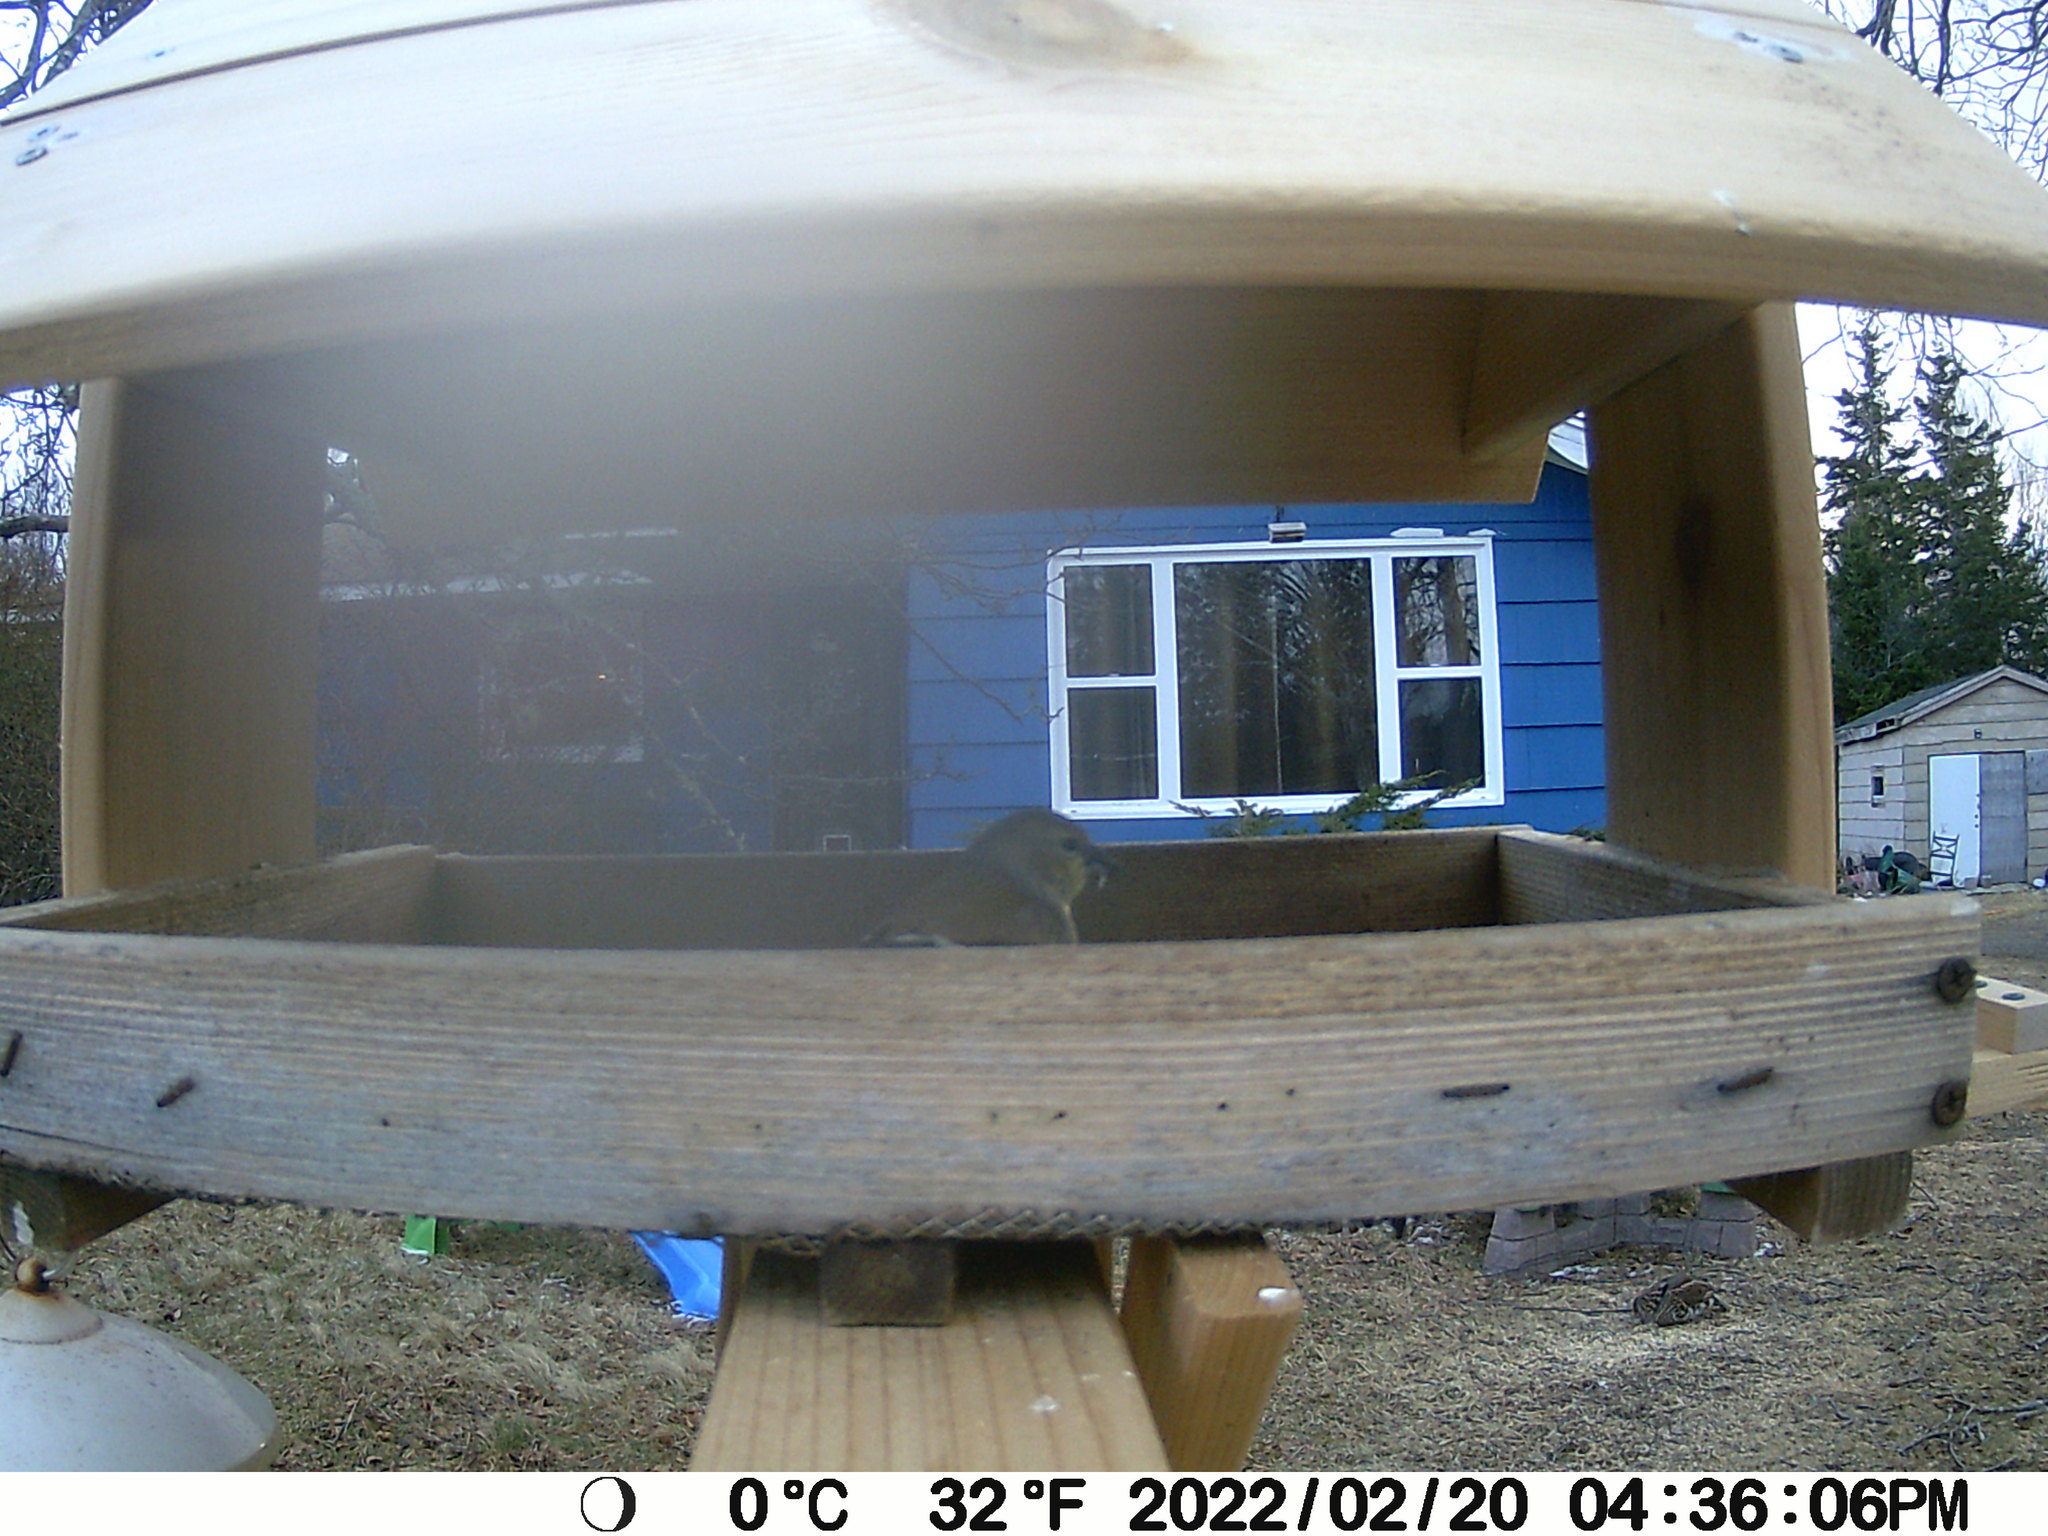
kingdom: Animalia
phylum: Chordata
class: Aves
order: Galliformes
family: Phasianidae
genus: Bonasa
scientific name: Bonasa umbellus
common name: Ruffed grouse
